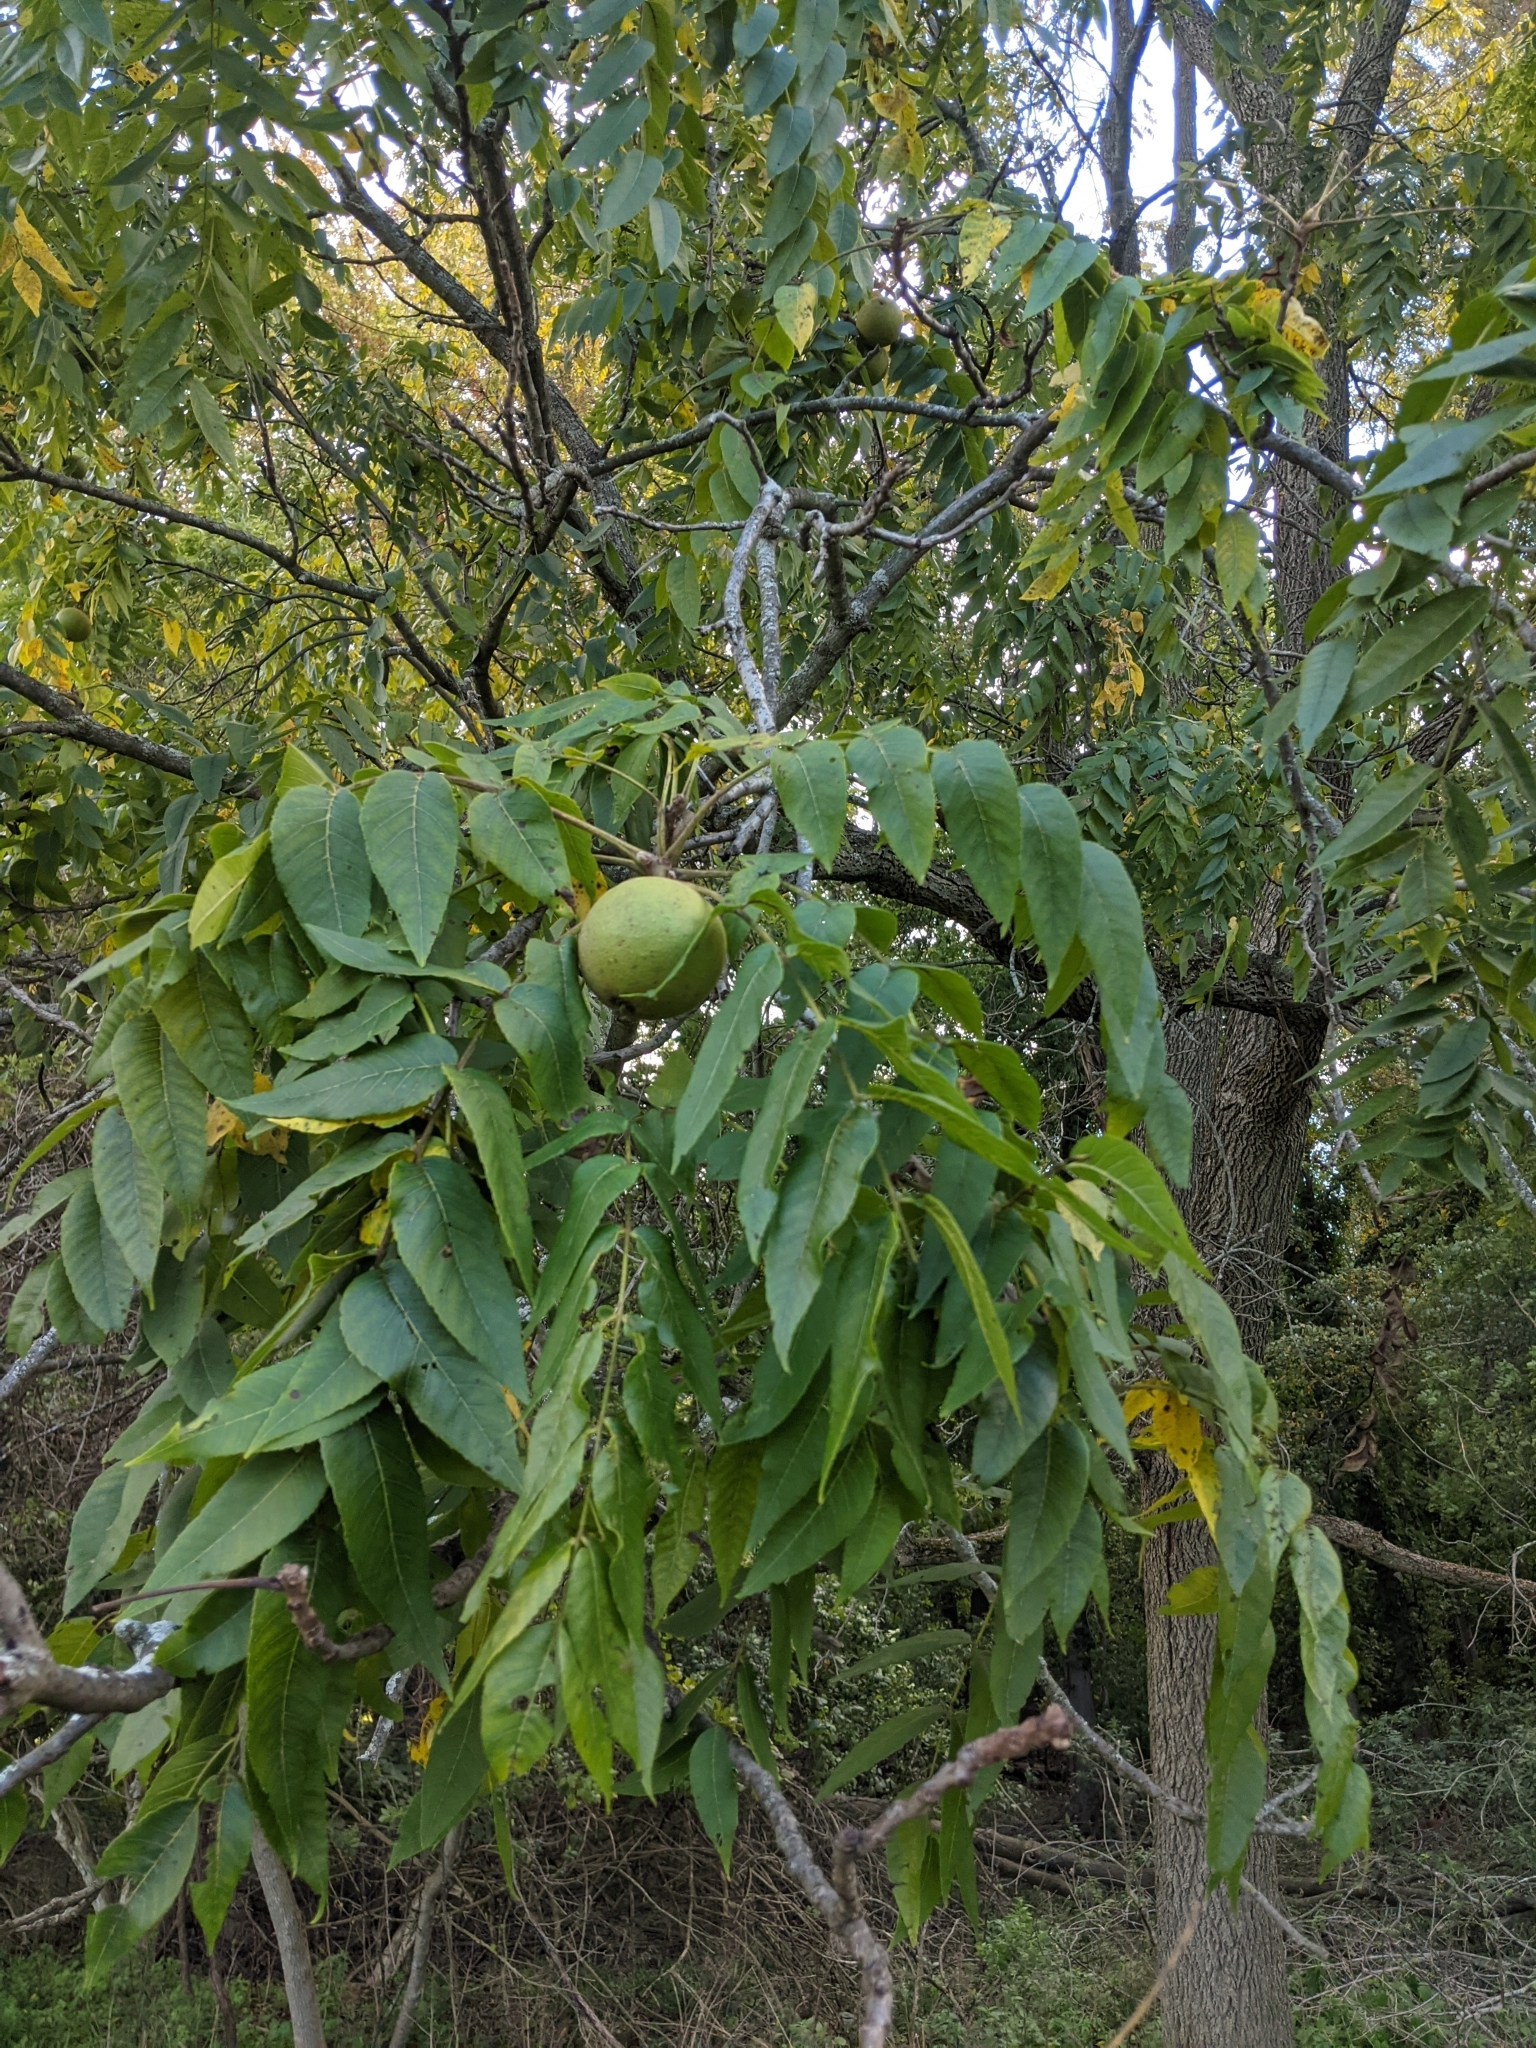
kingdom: Plantae
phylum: Tracheophyta
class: Magnoliopsida
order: Fagales
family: Juglandaceae
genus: Juglans
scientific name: Juglans nigra
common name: Black walnut
